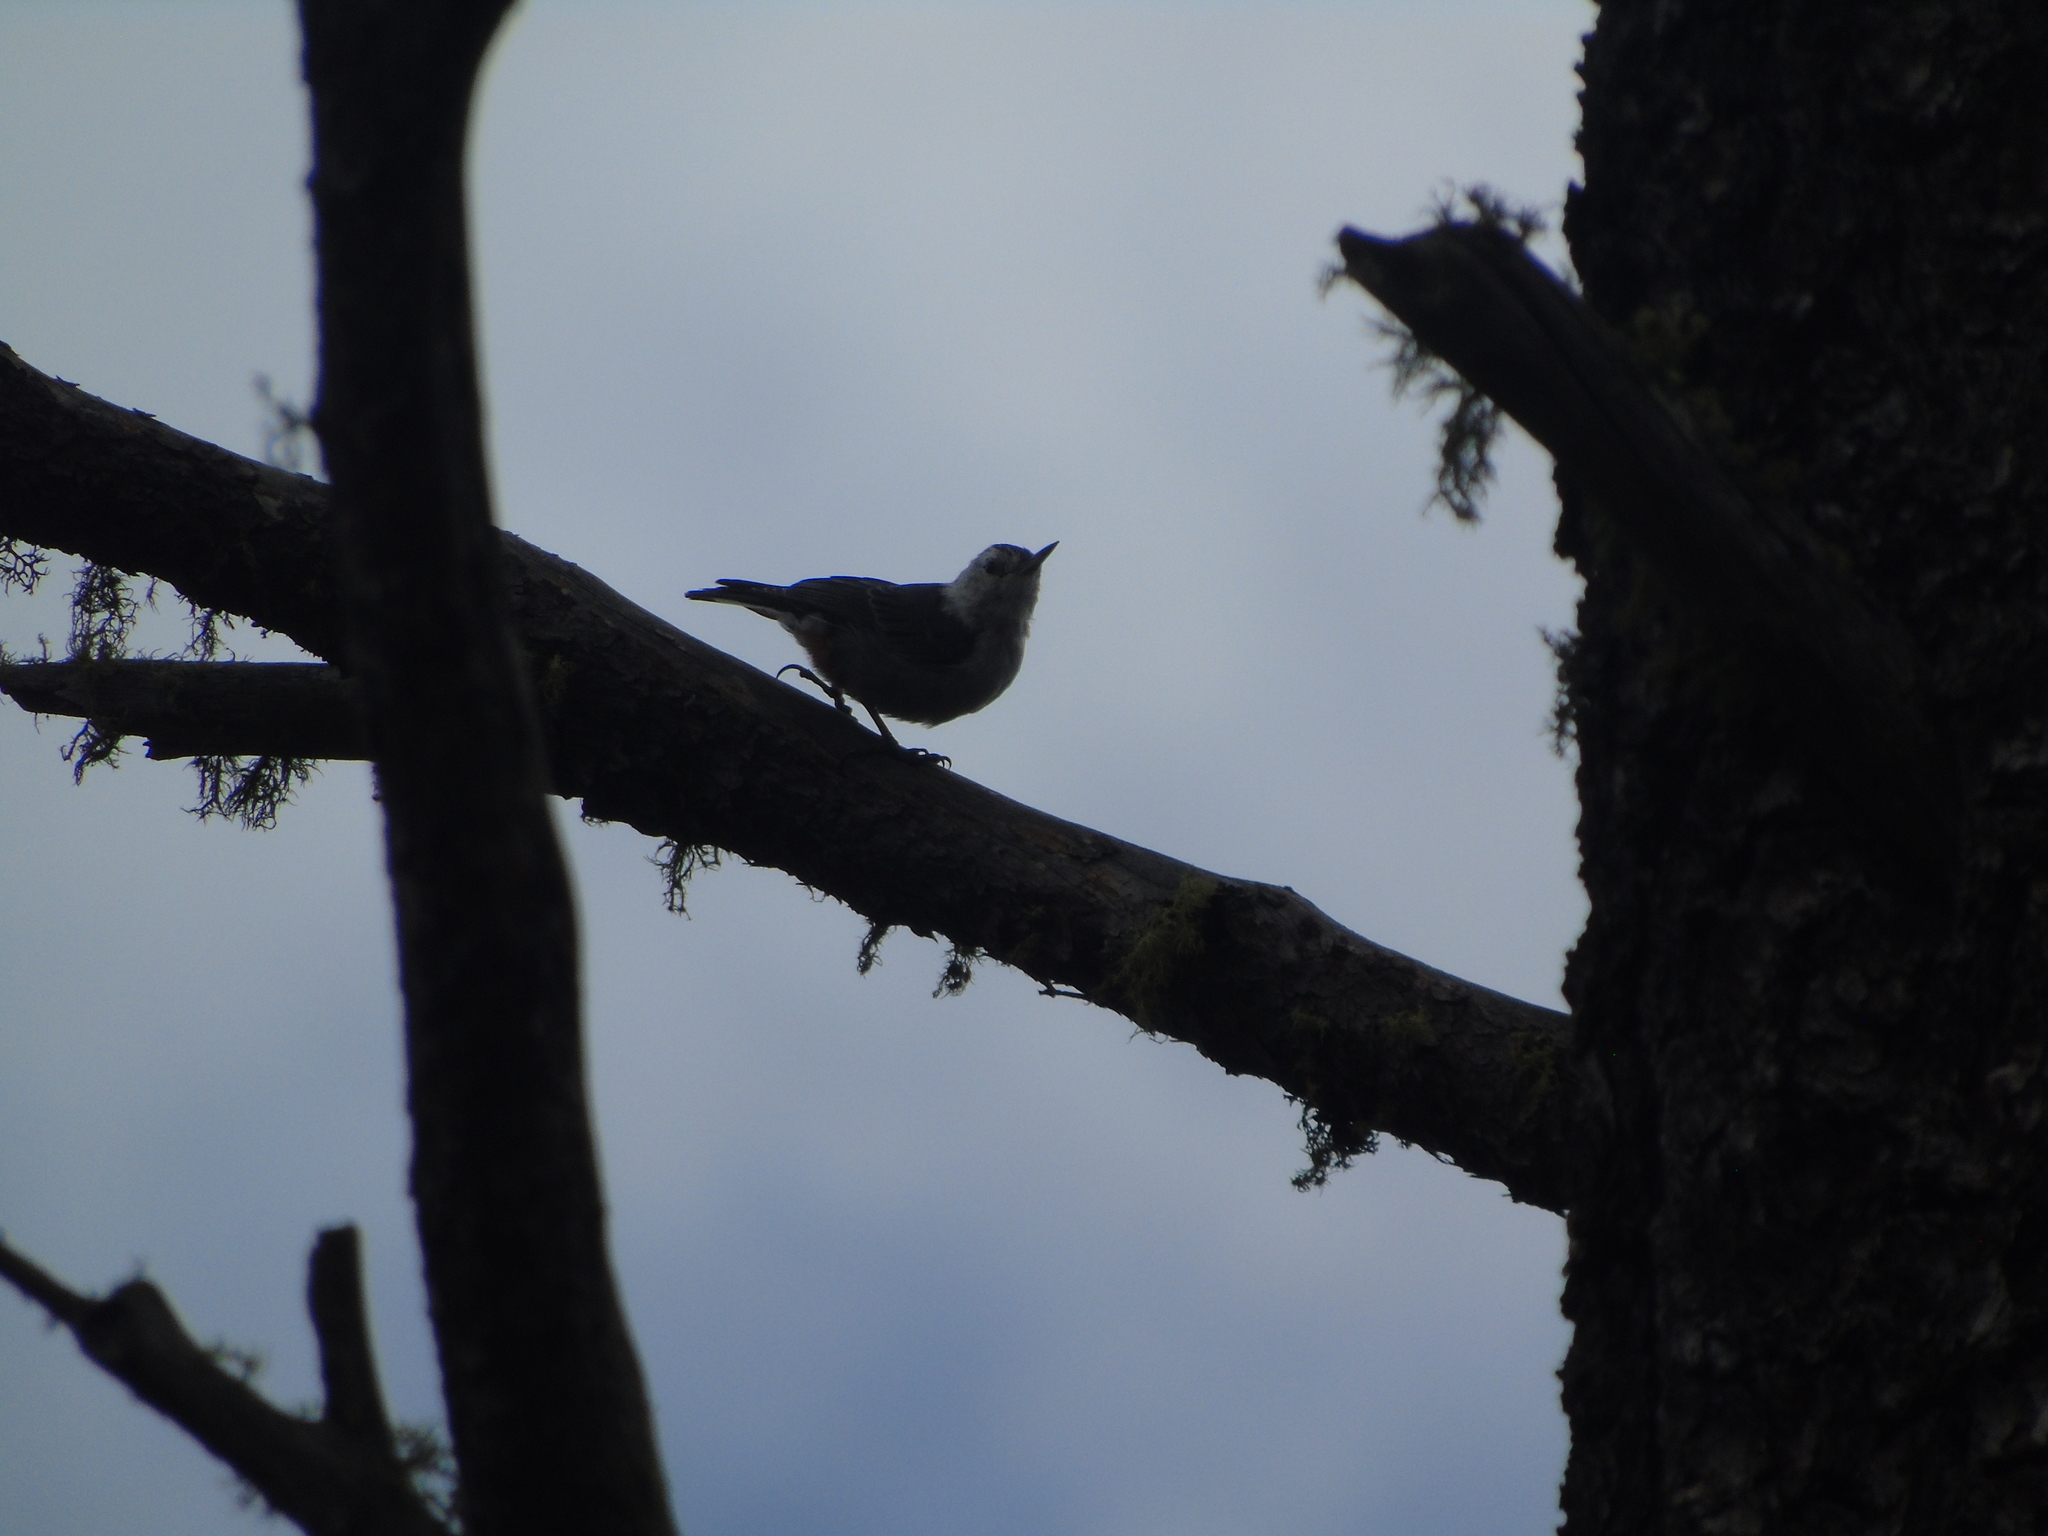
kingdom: Animalia
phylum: Chordata
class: Aves
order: Passeriformes
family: Sittidae
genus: Sitta
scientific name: Sitta carolinensis
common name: White-breasted nuthatch
